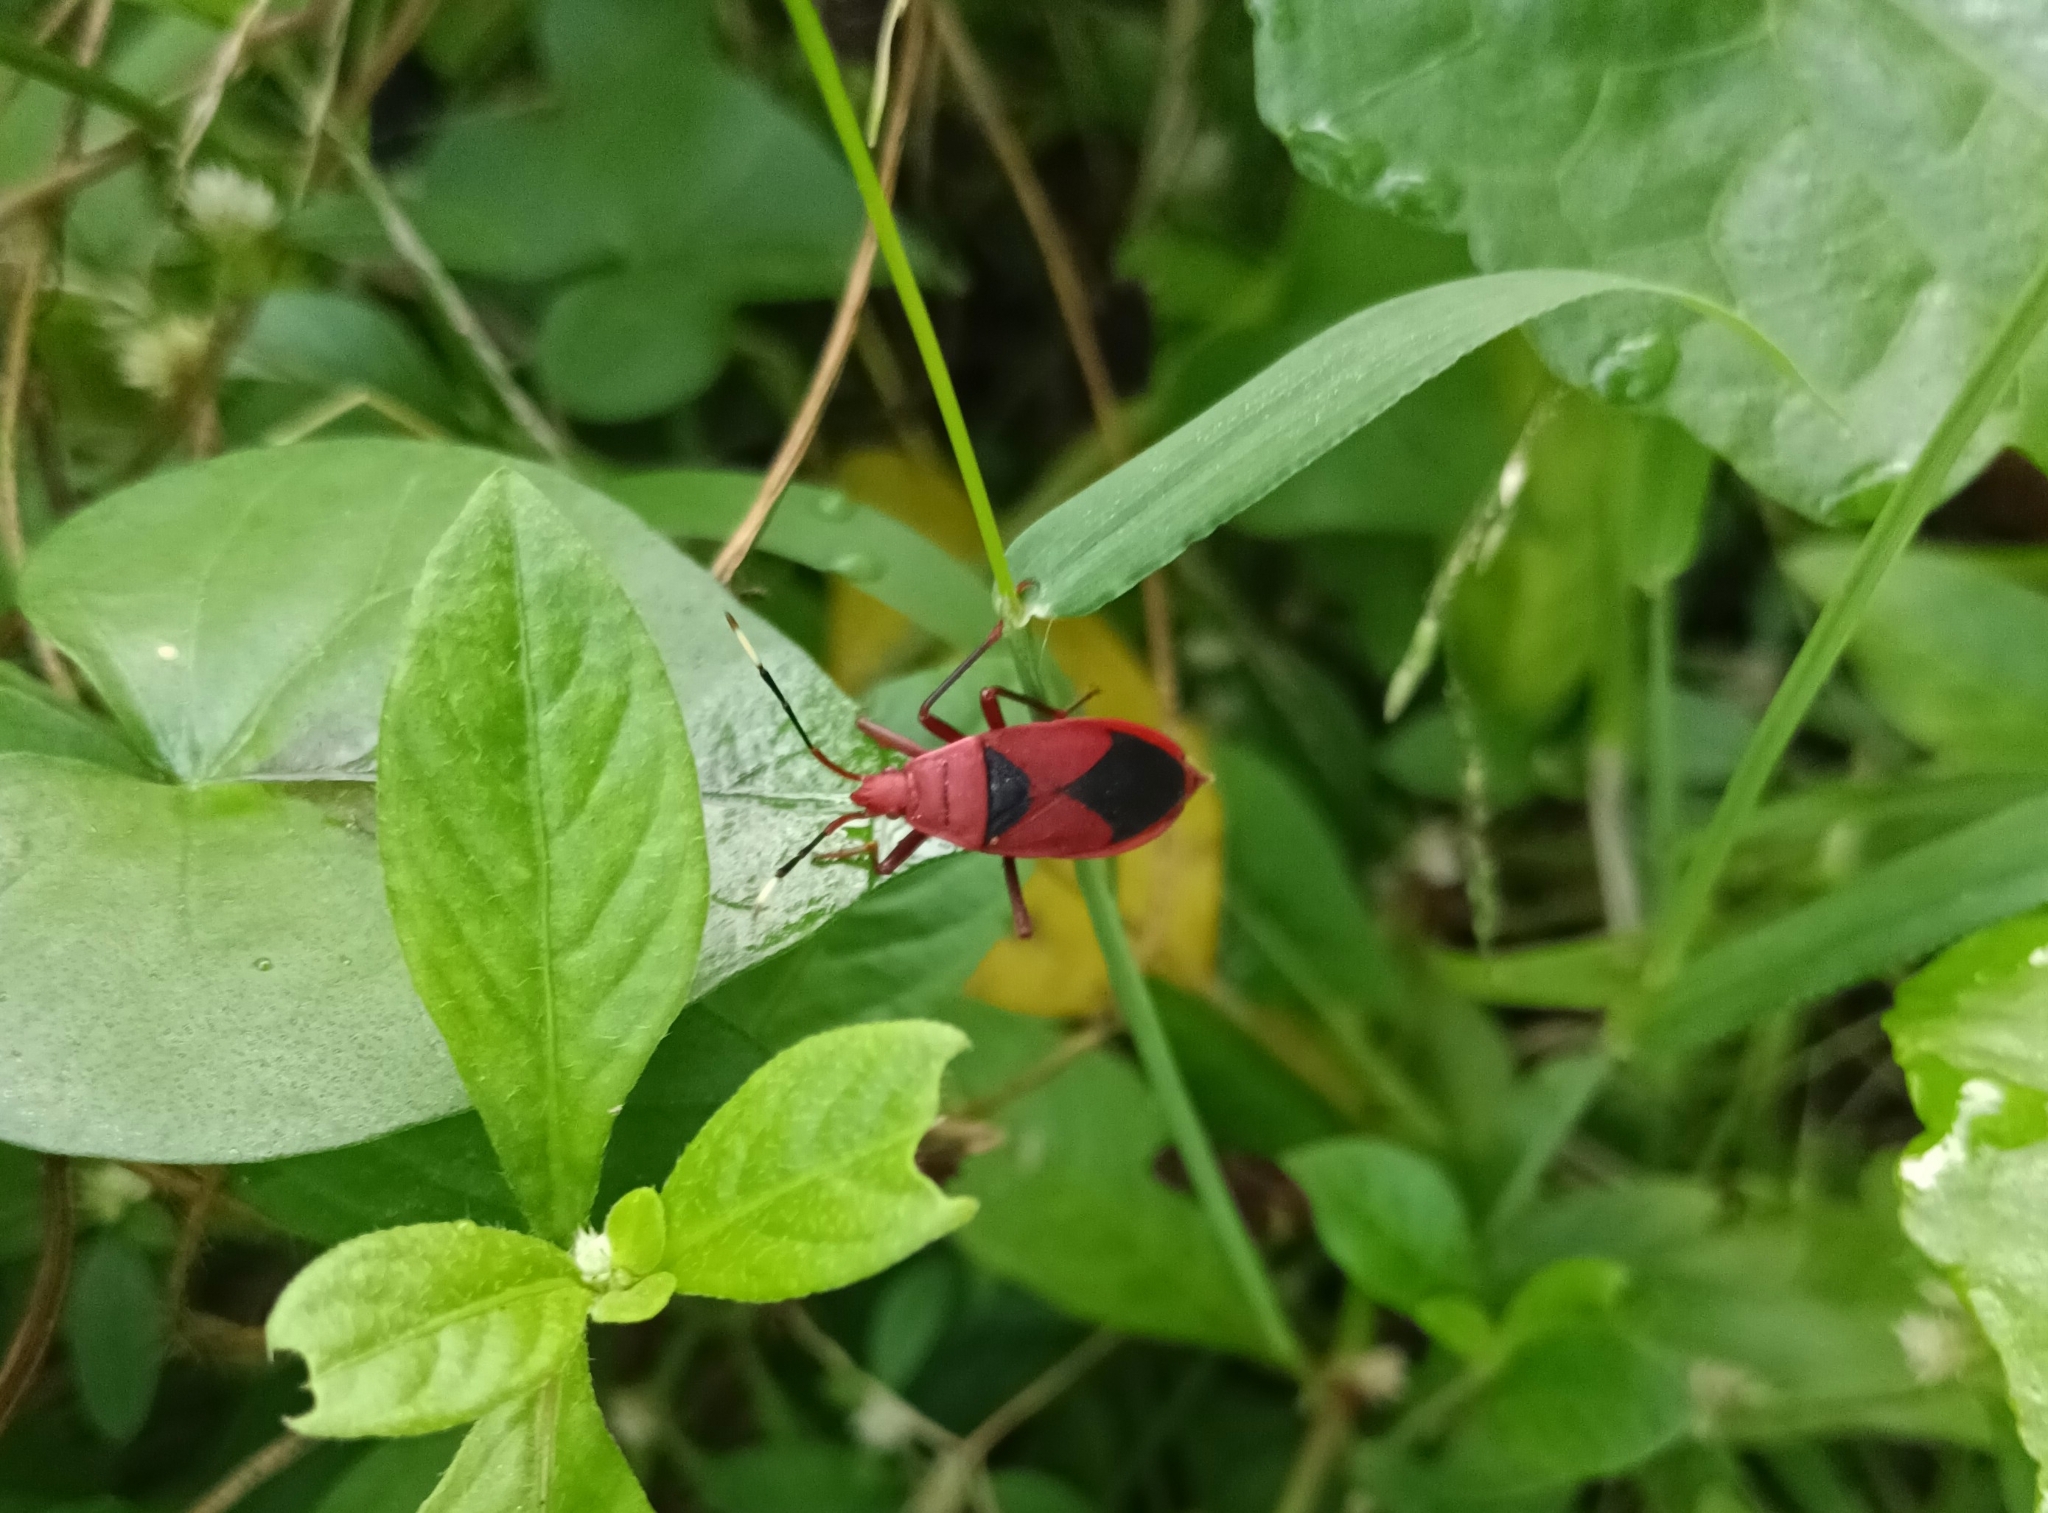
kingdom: Animalia
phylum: Arthropoda
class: Insecta
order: Hemiptera
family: Pyrrhocoridae
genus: Probergrothius
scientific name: Probergrothius
